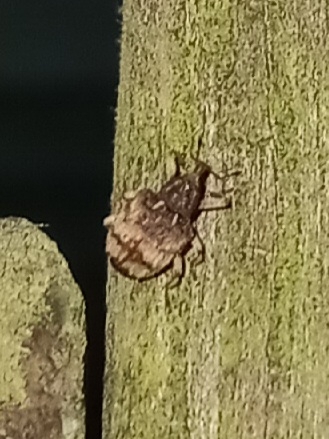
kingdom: Animalia
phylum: Arthropoda
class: Insecta
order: Coleoptera
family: Curculionidae
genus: Phyrdenus
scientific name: Phyrdenus divergens
